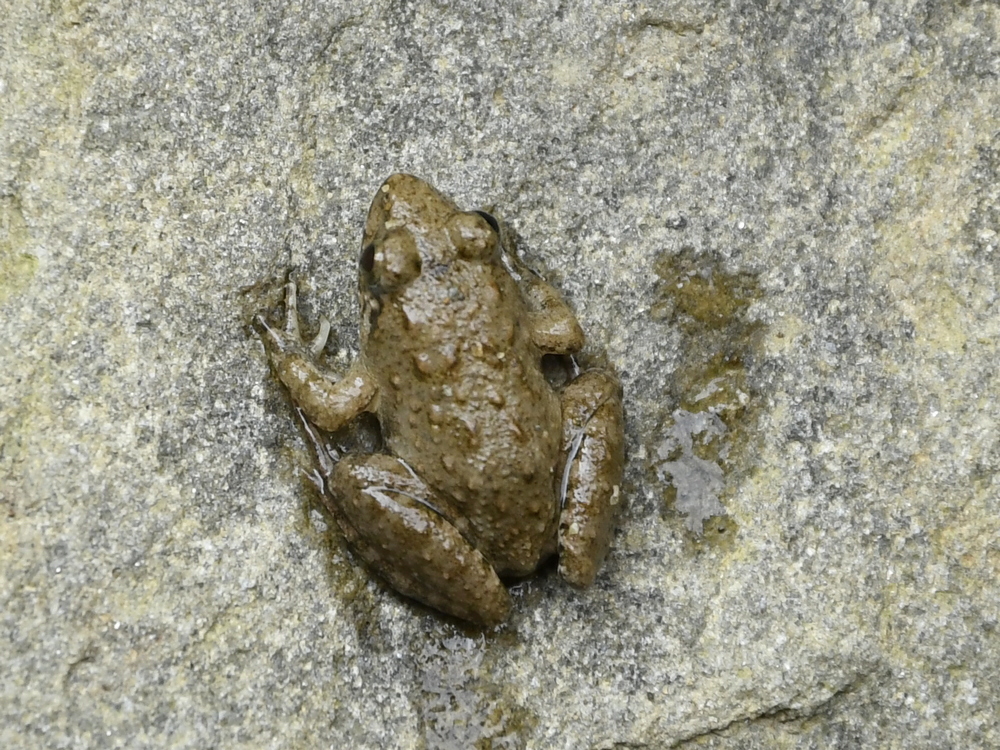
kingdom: Animalia
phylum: Chordata
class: Amphibia
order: Anura
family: Dicroglossidae
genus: Fejervarya
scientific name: Fejervarya limnocharis
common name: Asian grass frog/common pond frog/field frog/grass frog/indian rice frog
